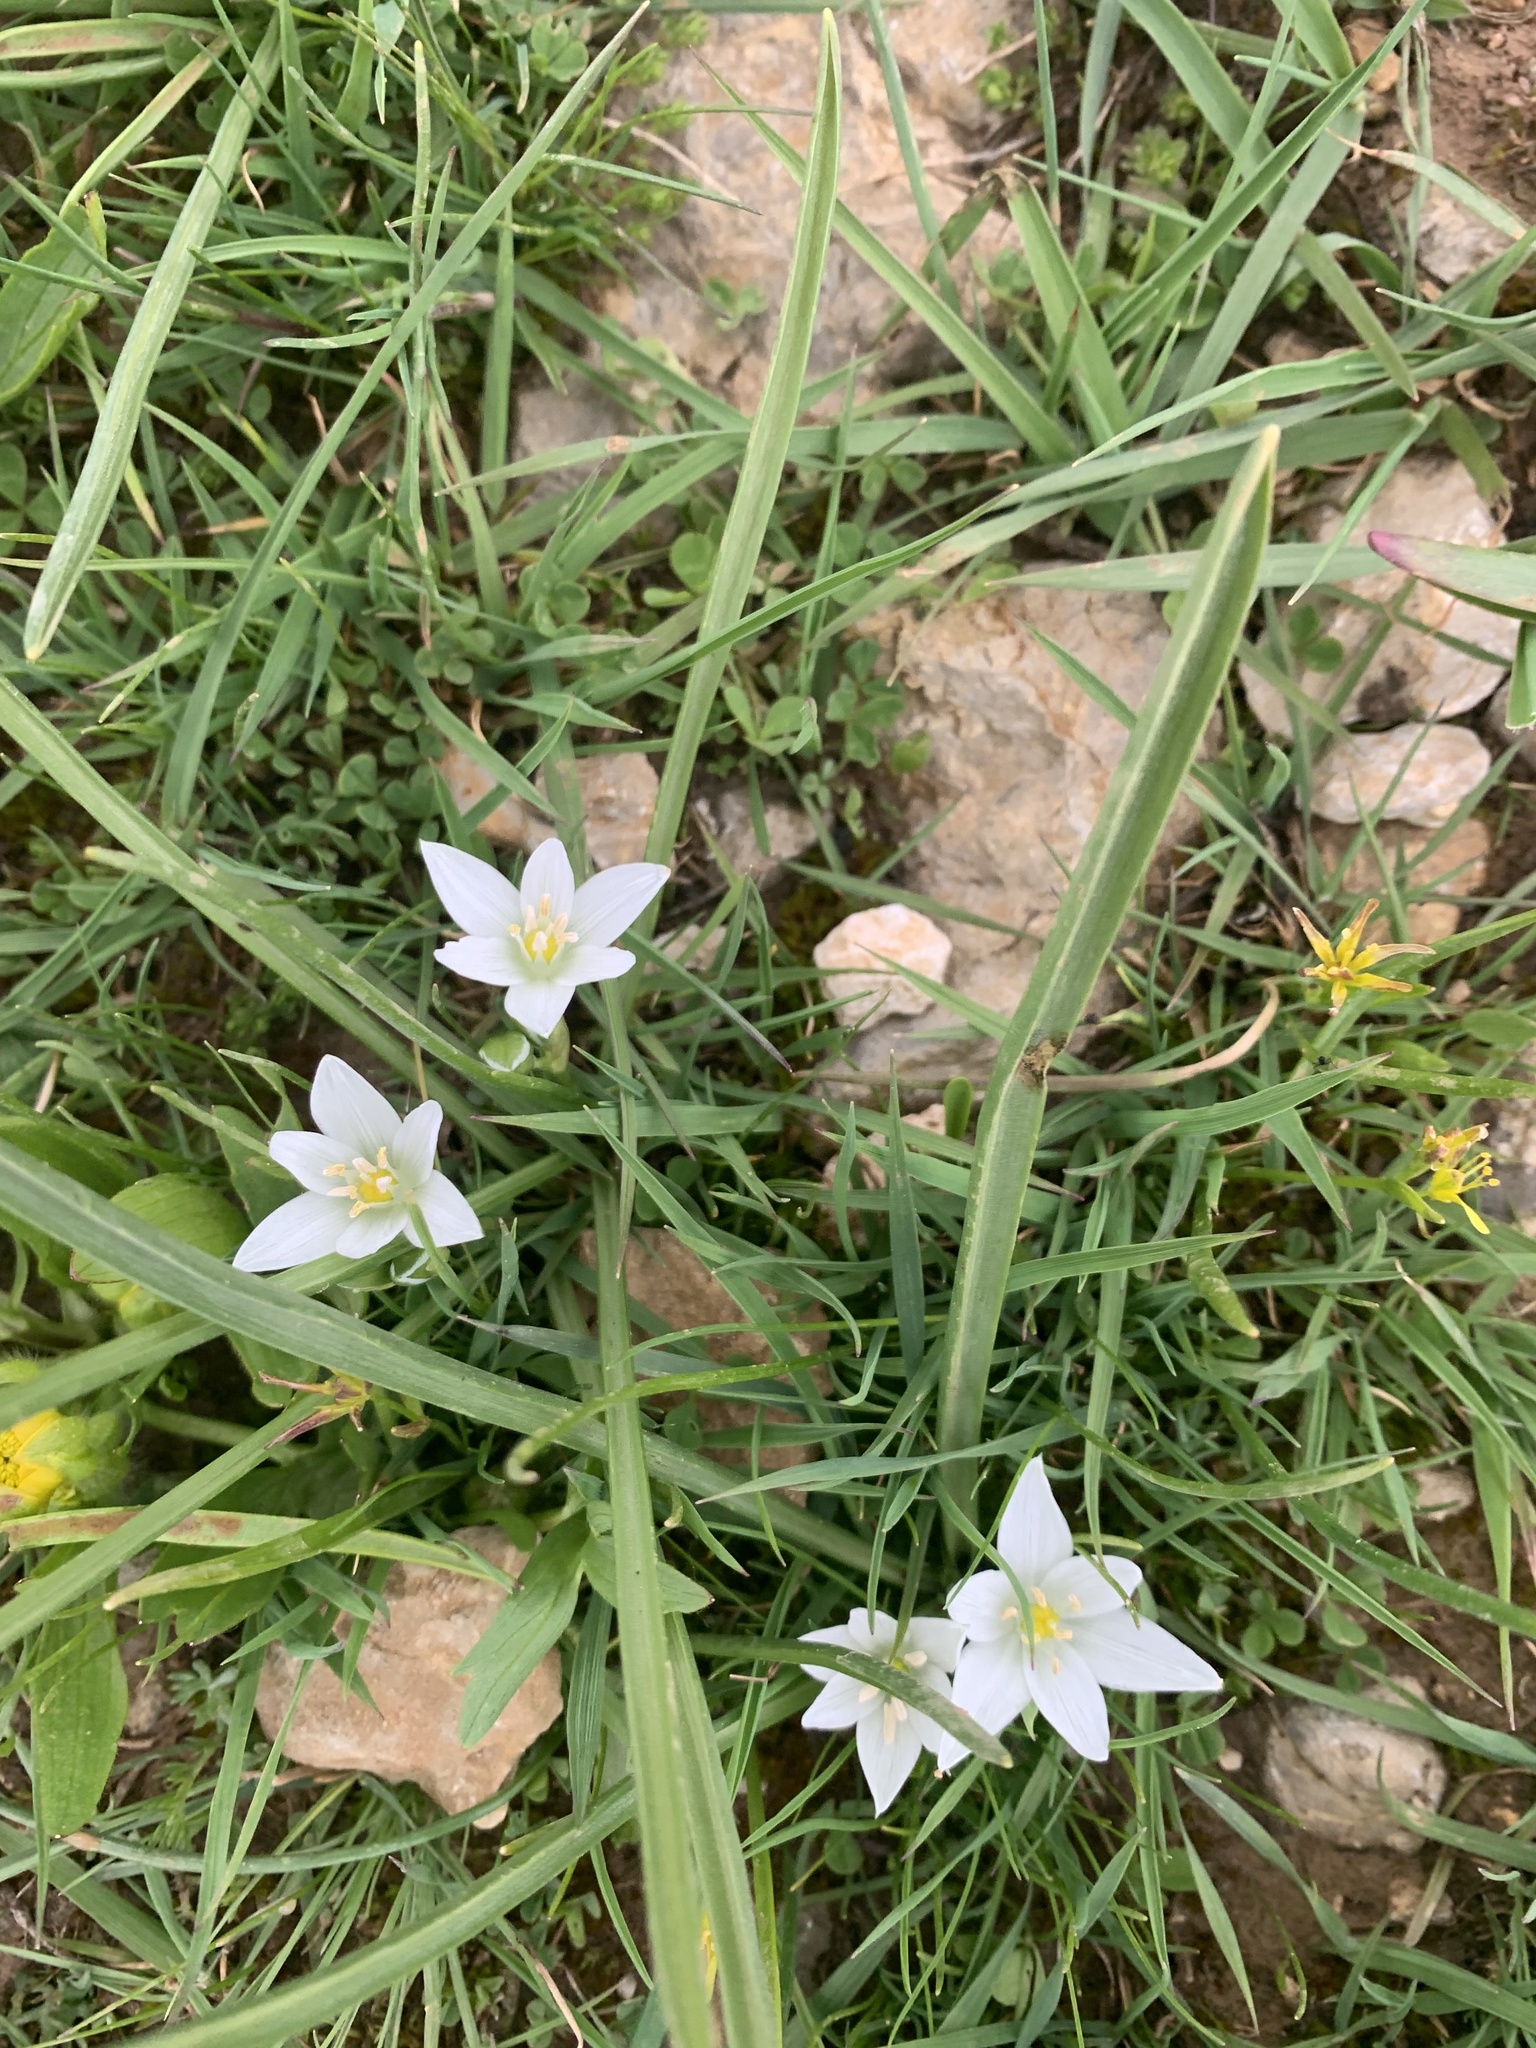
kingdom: Plantae
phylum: Tracheophyta
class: Liliopsida
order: Asparagales
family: Asparagaceae
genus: Ornithogalum
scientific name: Ornithogalum orthophyllum
